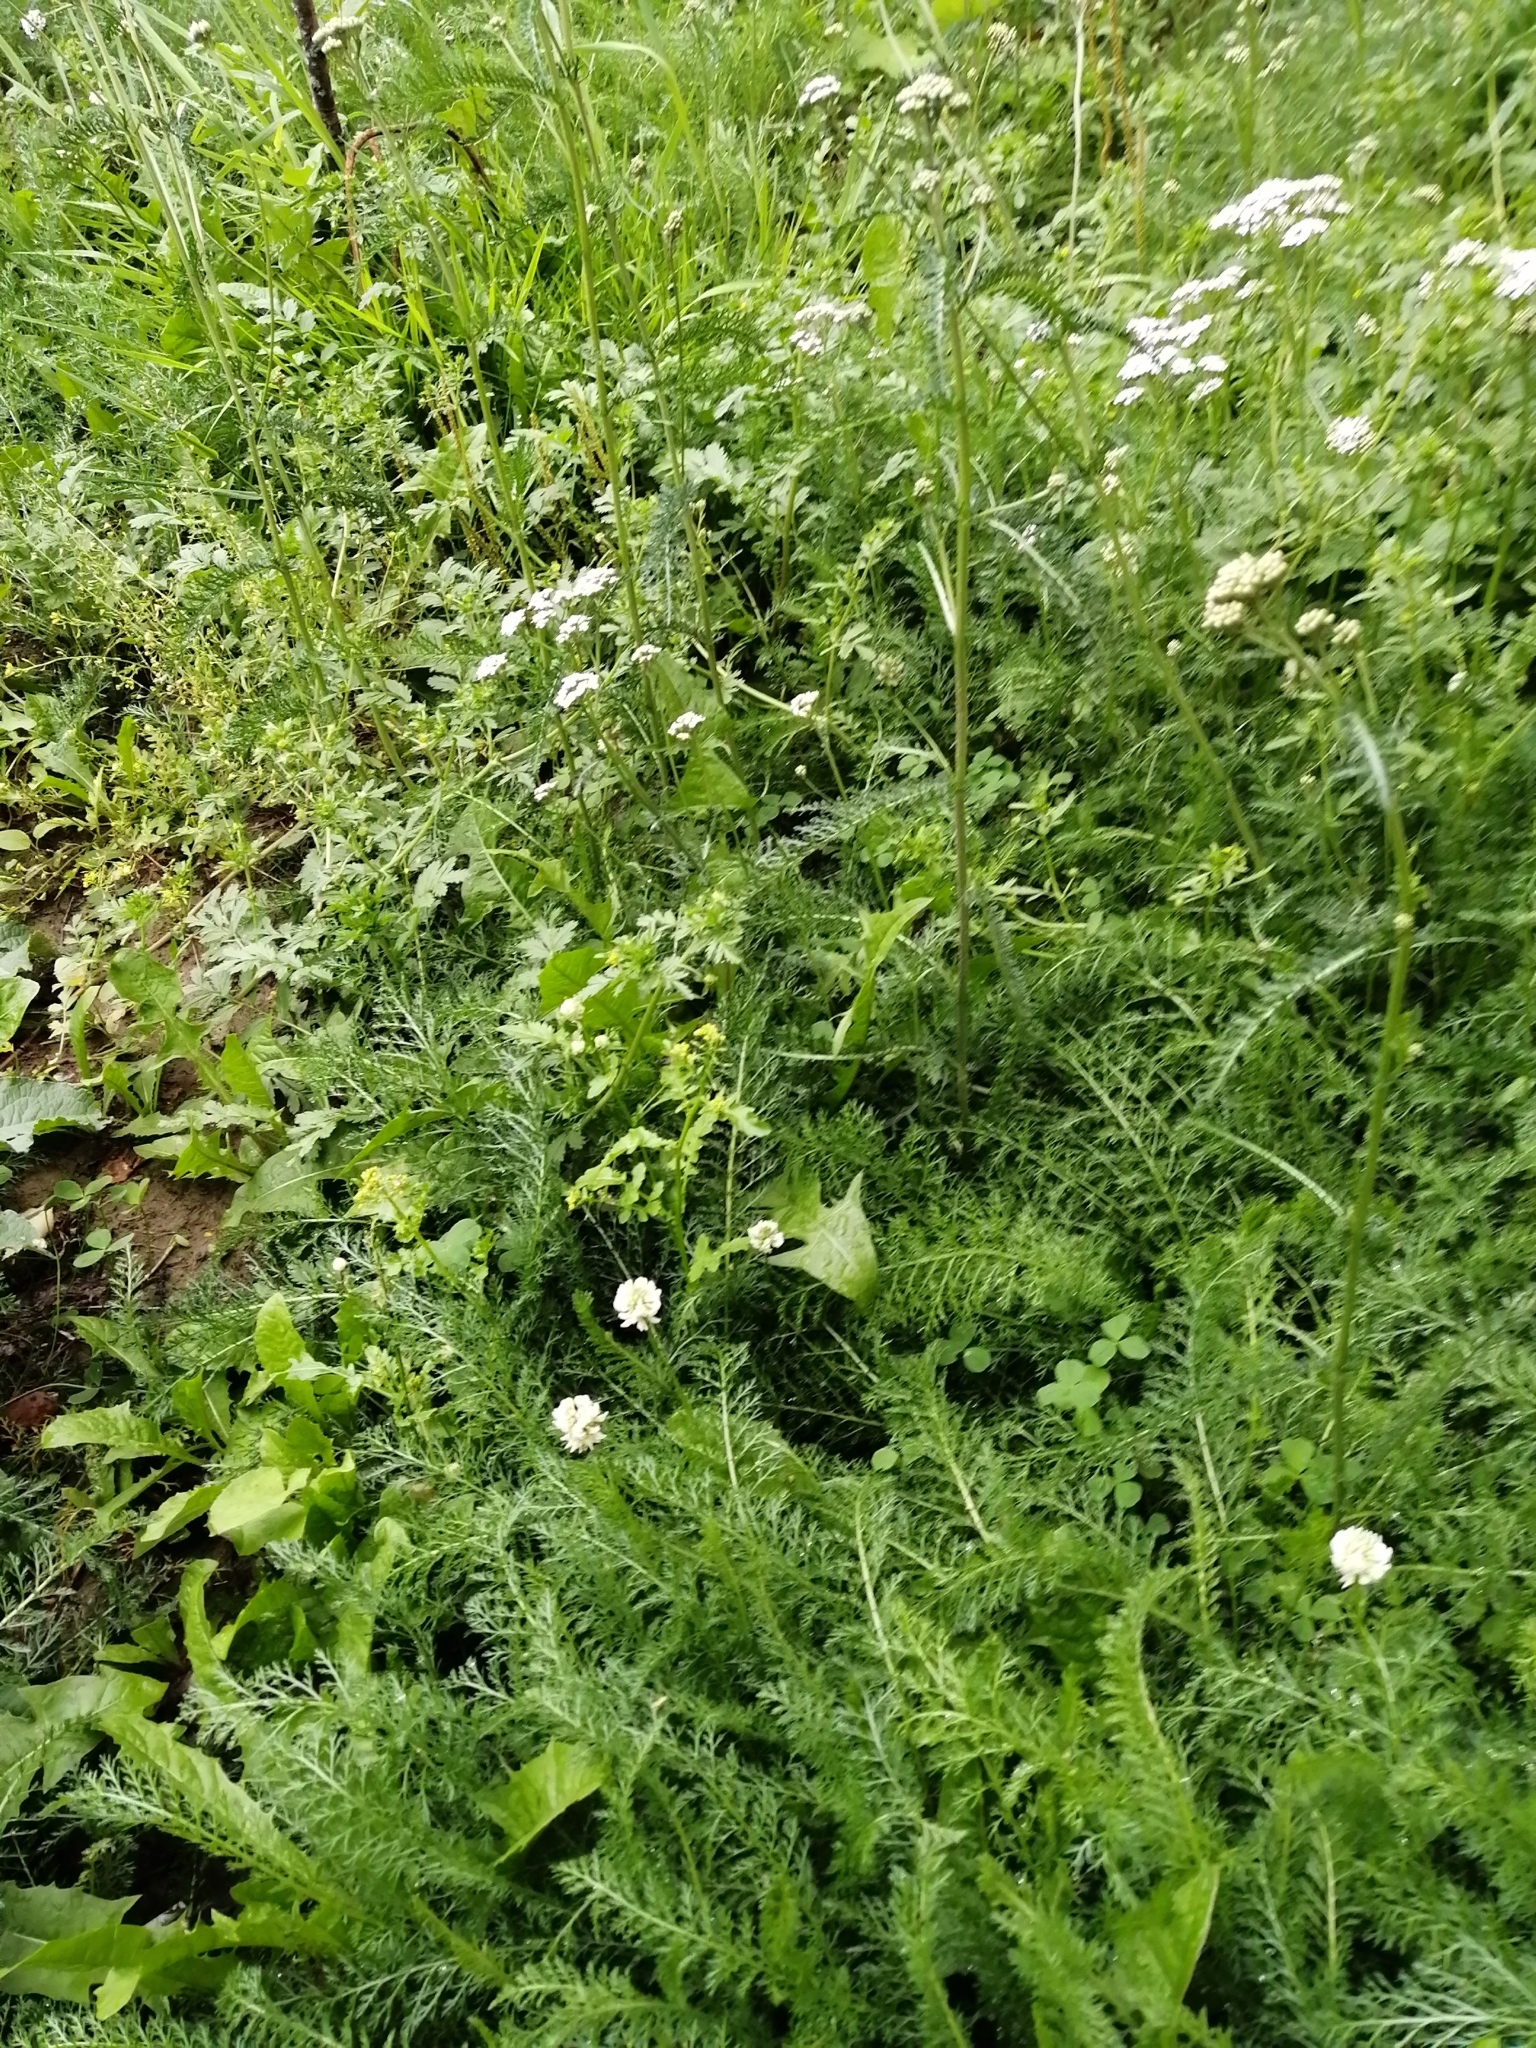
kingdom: Plantae
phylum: Tracheophyta
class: Magnoliopsida
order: Asterales
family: Asteraceae
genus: Achillea
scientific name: Achillea millefolium
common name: Yarrow
